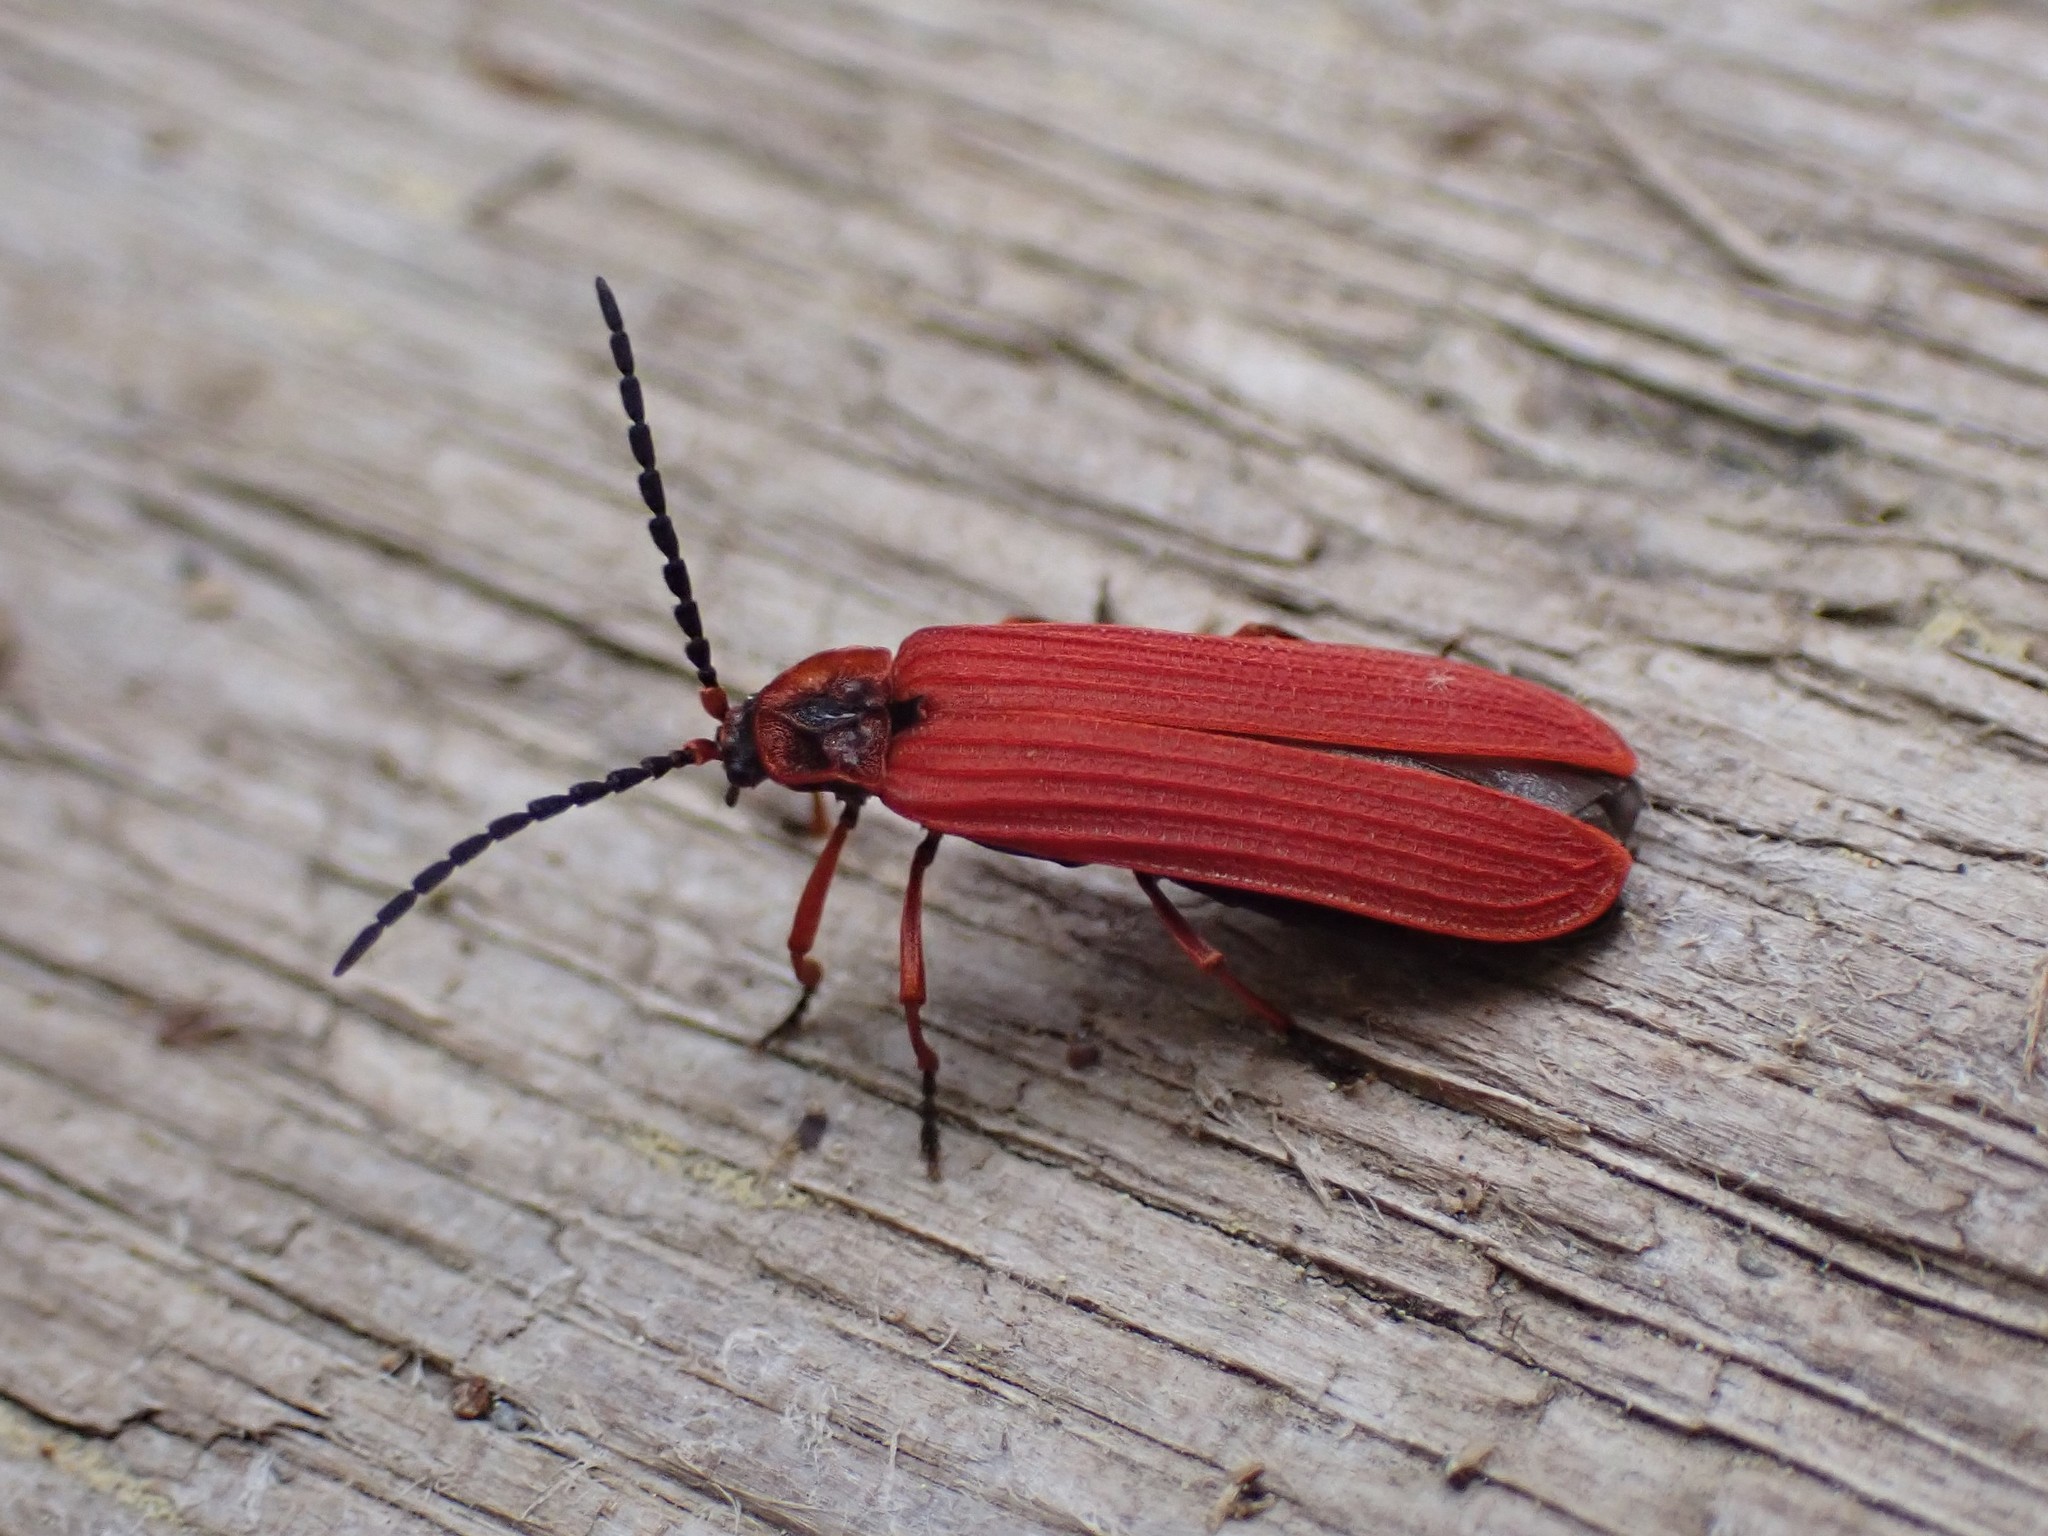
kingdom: Animalia
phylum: Arthropoda
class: Insecta
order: Coleoptera
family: Lycidae
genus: Dictyoptera
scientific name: Dictyoptera simplicipes
